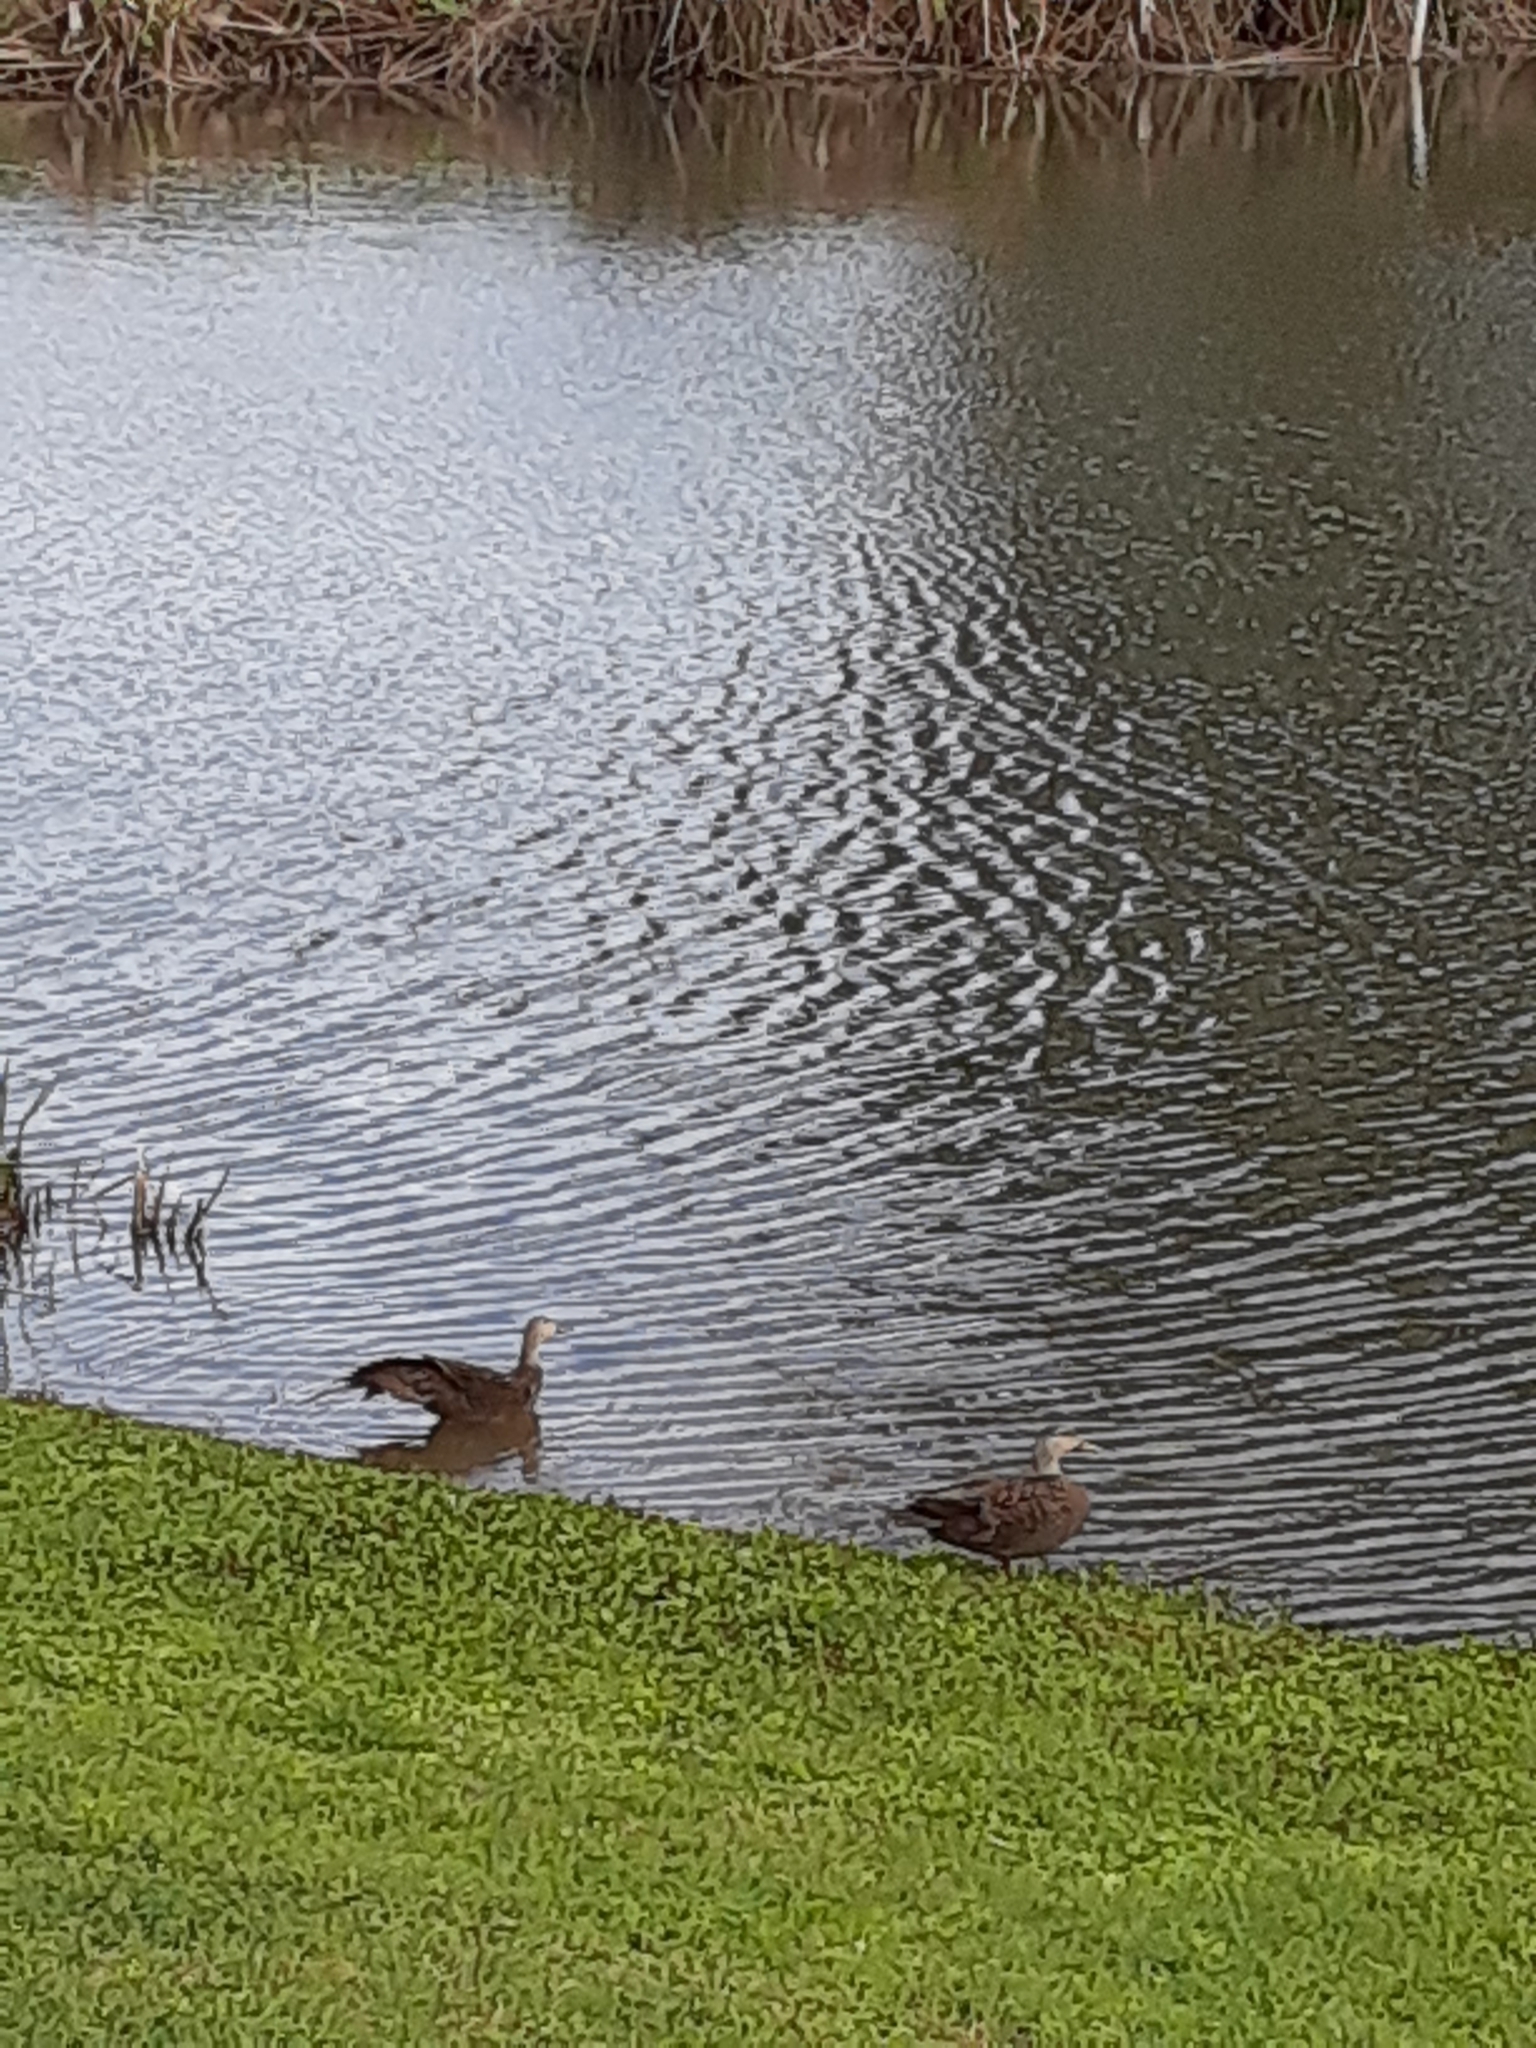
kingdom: Animalia
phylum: Chordata
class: Aves
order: Anseriformes
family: Anatidae
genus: Anas
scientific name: Anas fulvigula
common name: Mottled duck
